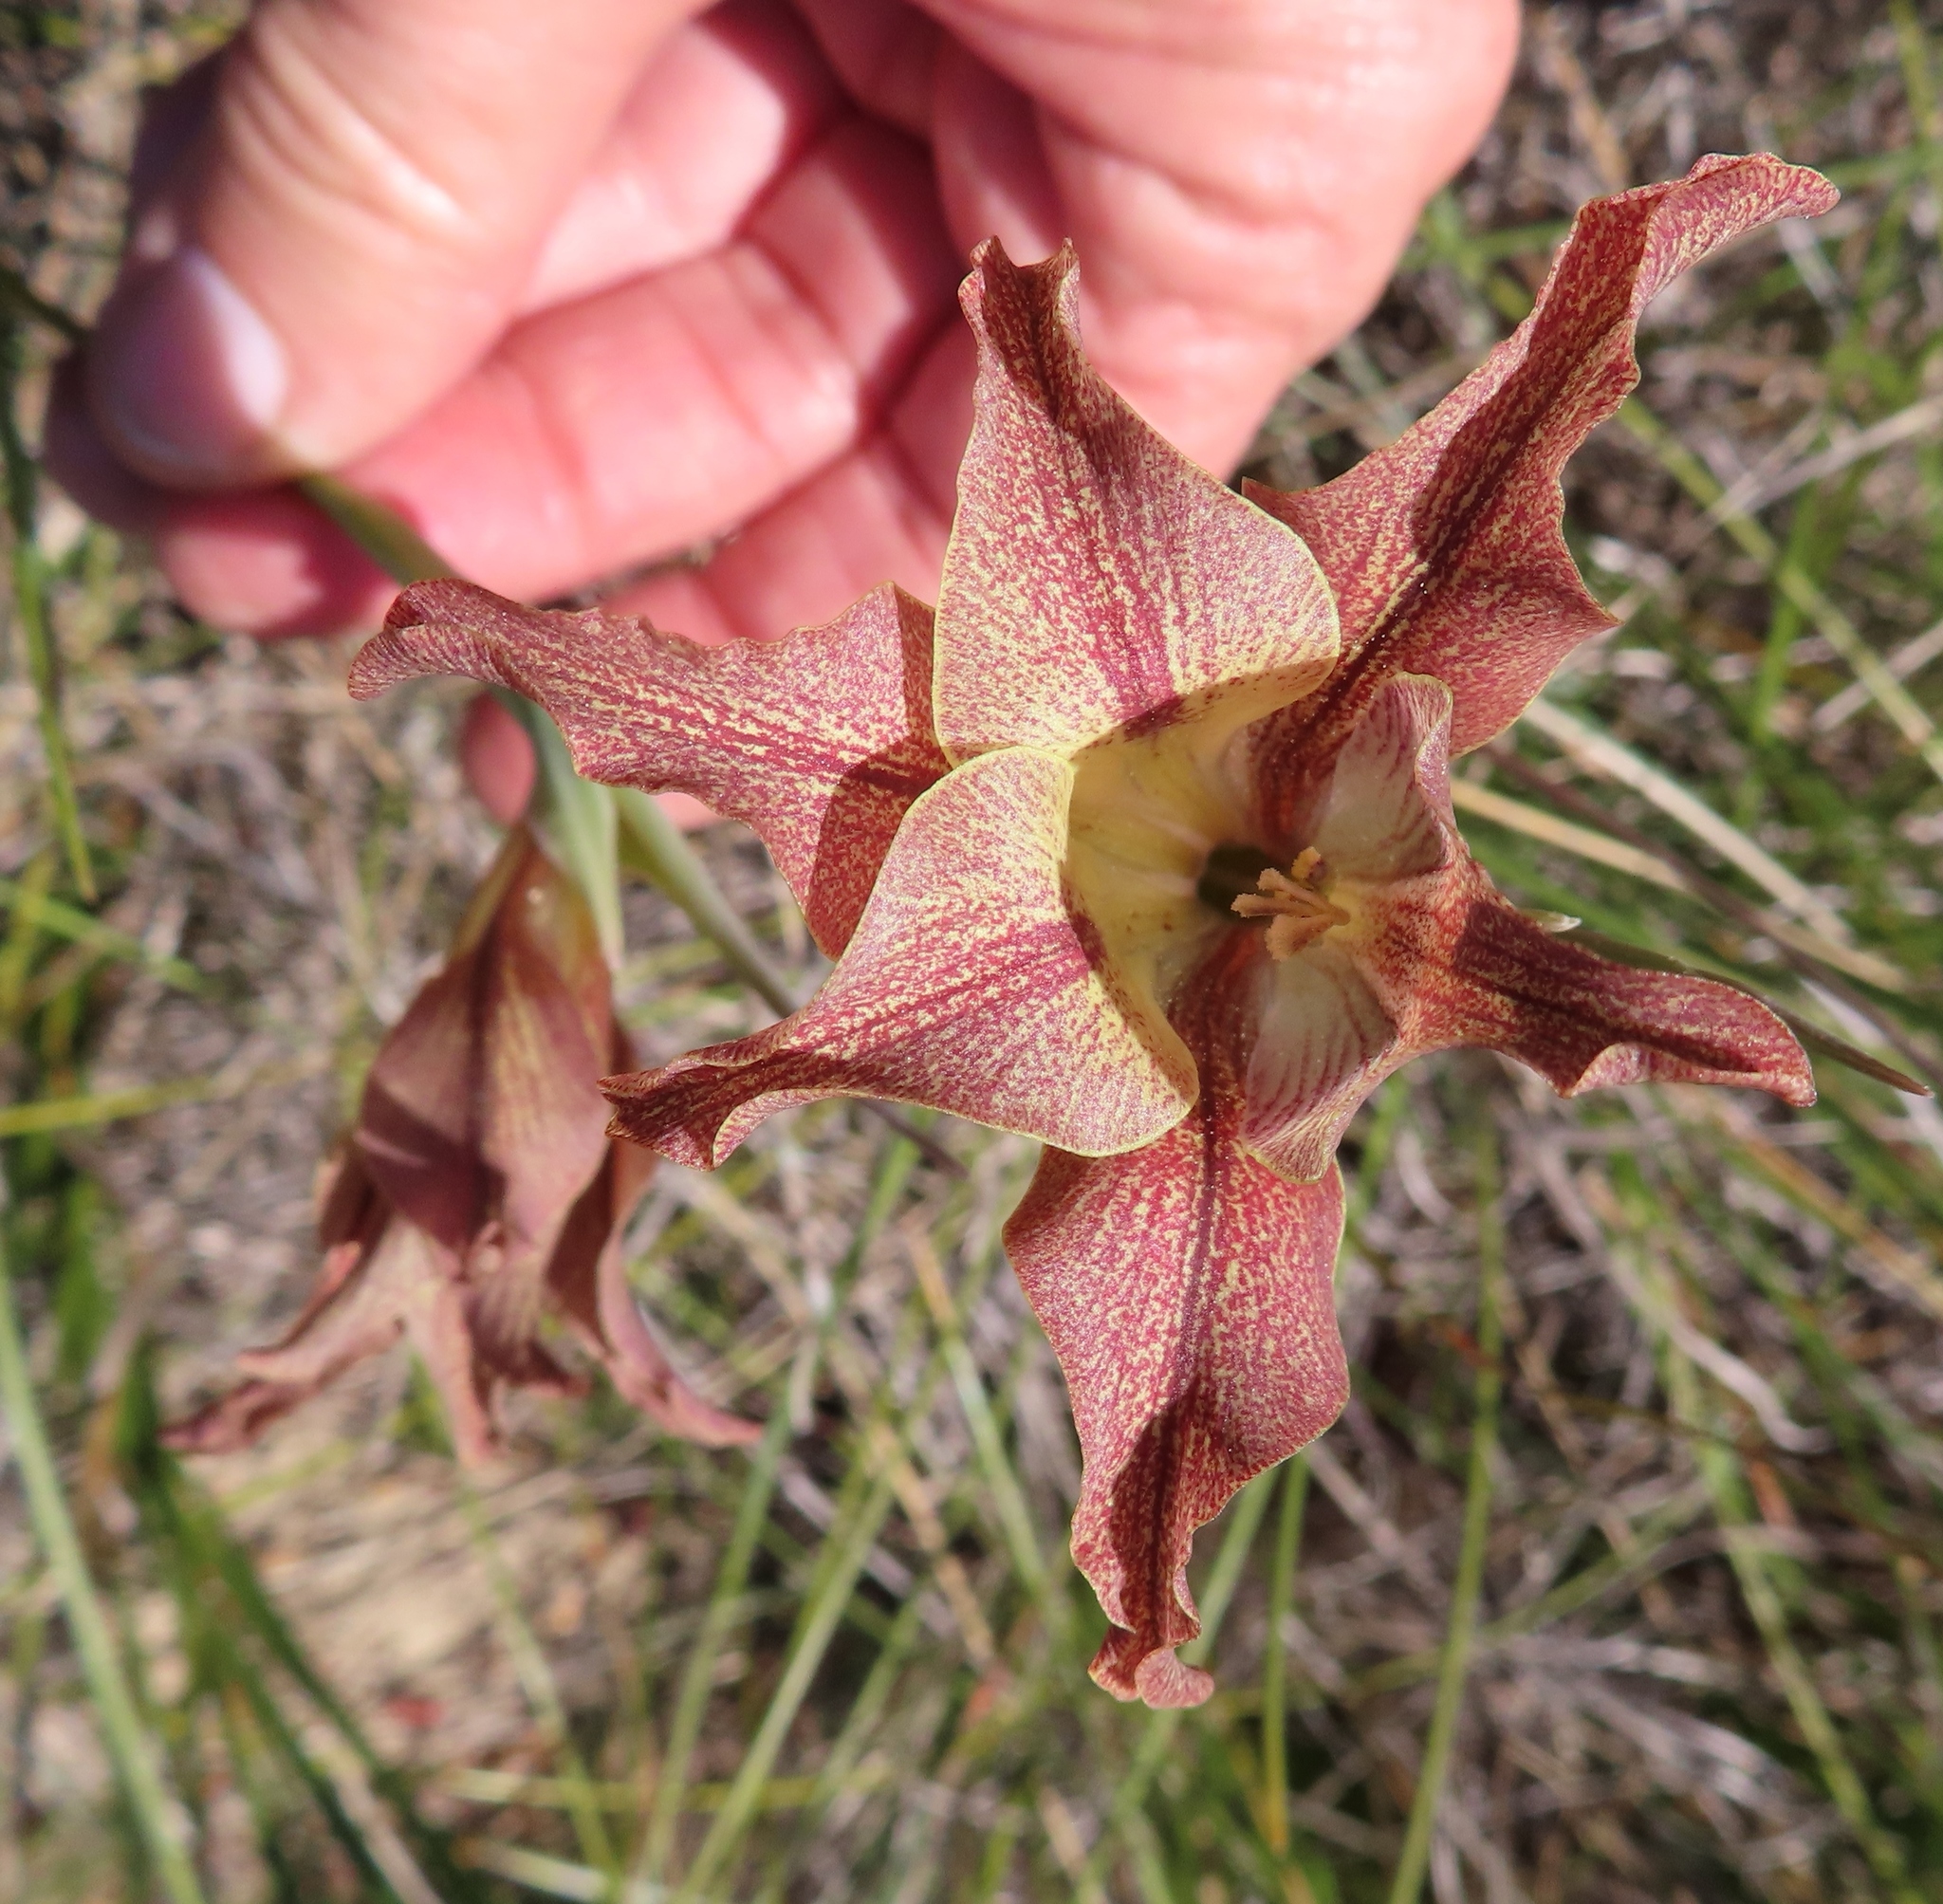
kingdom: Plantae
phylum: Tracheophyta
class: Liliopsida
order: Asparagales
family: Iridaceae
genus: Gladiolus
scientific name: Gladiolus liliaceus
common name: Large brown afrikaner
